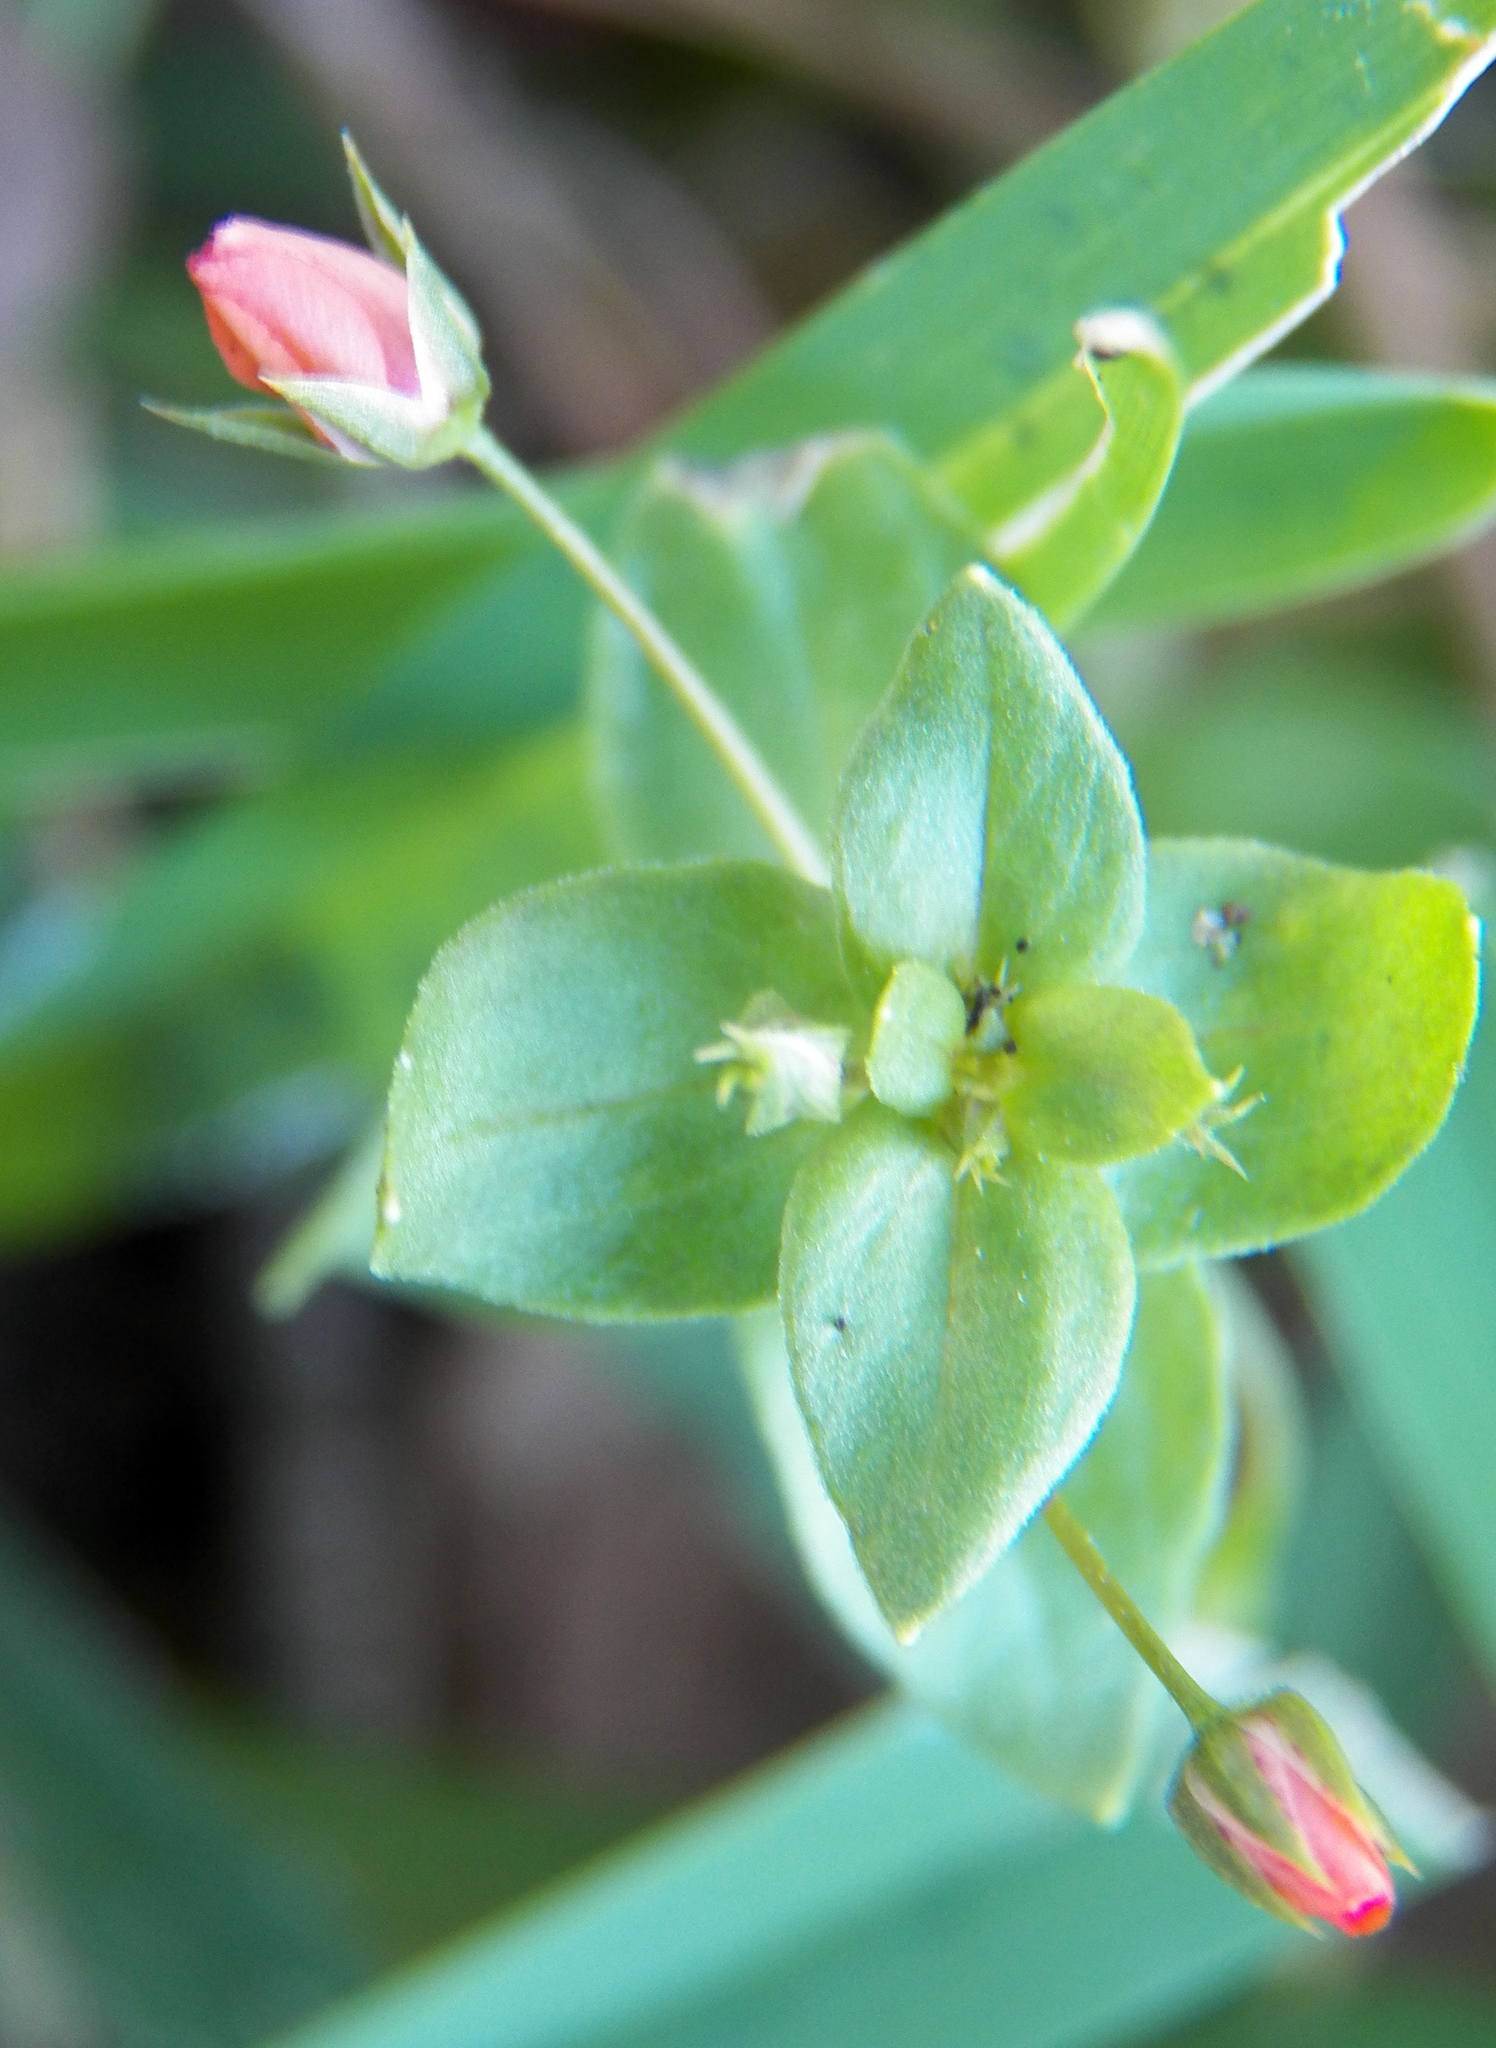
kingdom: Plantae
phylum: Tracheophyta
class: Magnoliopsida
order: Ericales
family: Primulaceae
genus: Lysimachia
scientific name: Lysimachia arvensis
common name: Scarlet pimpernel
